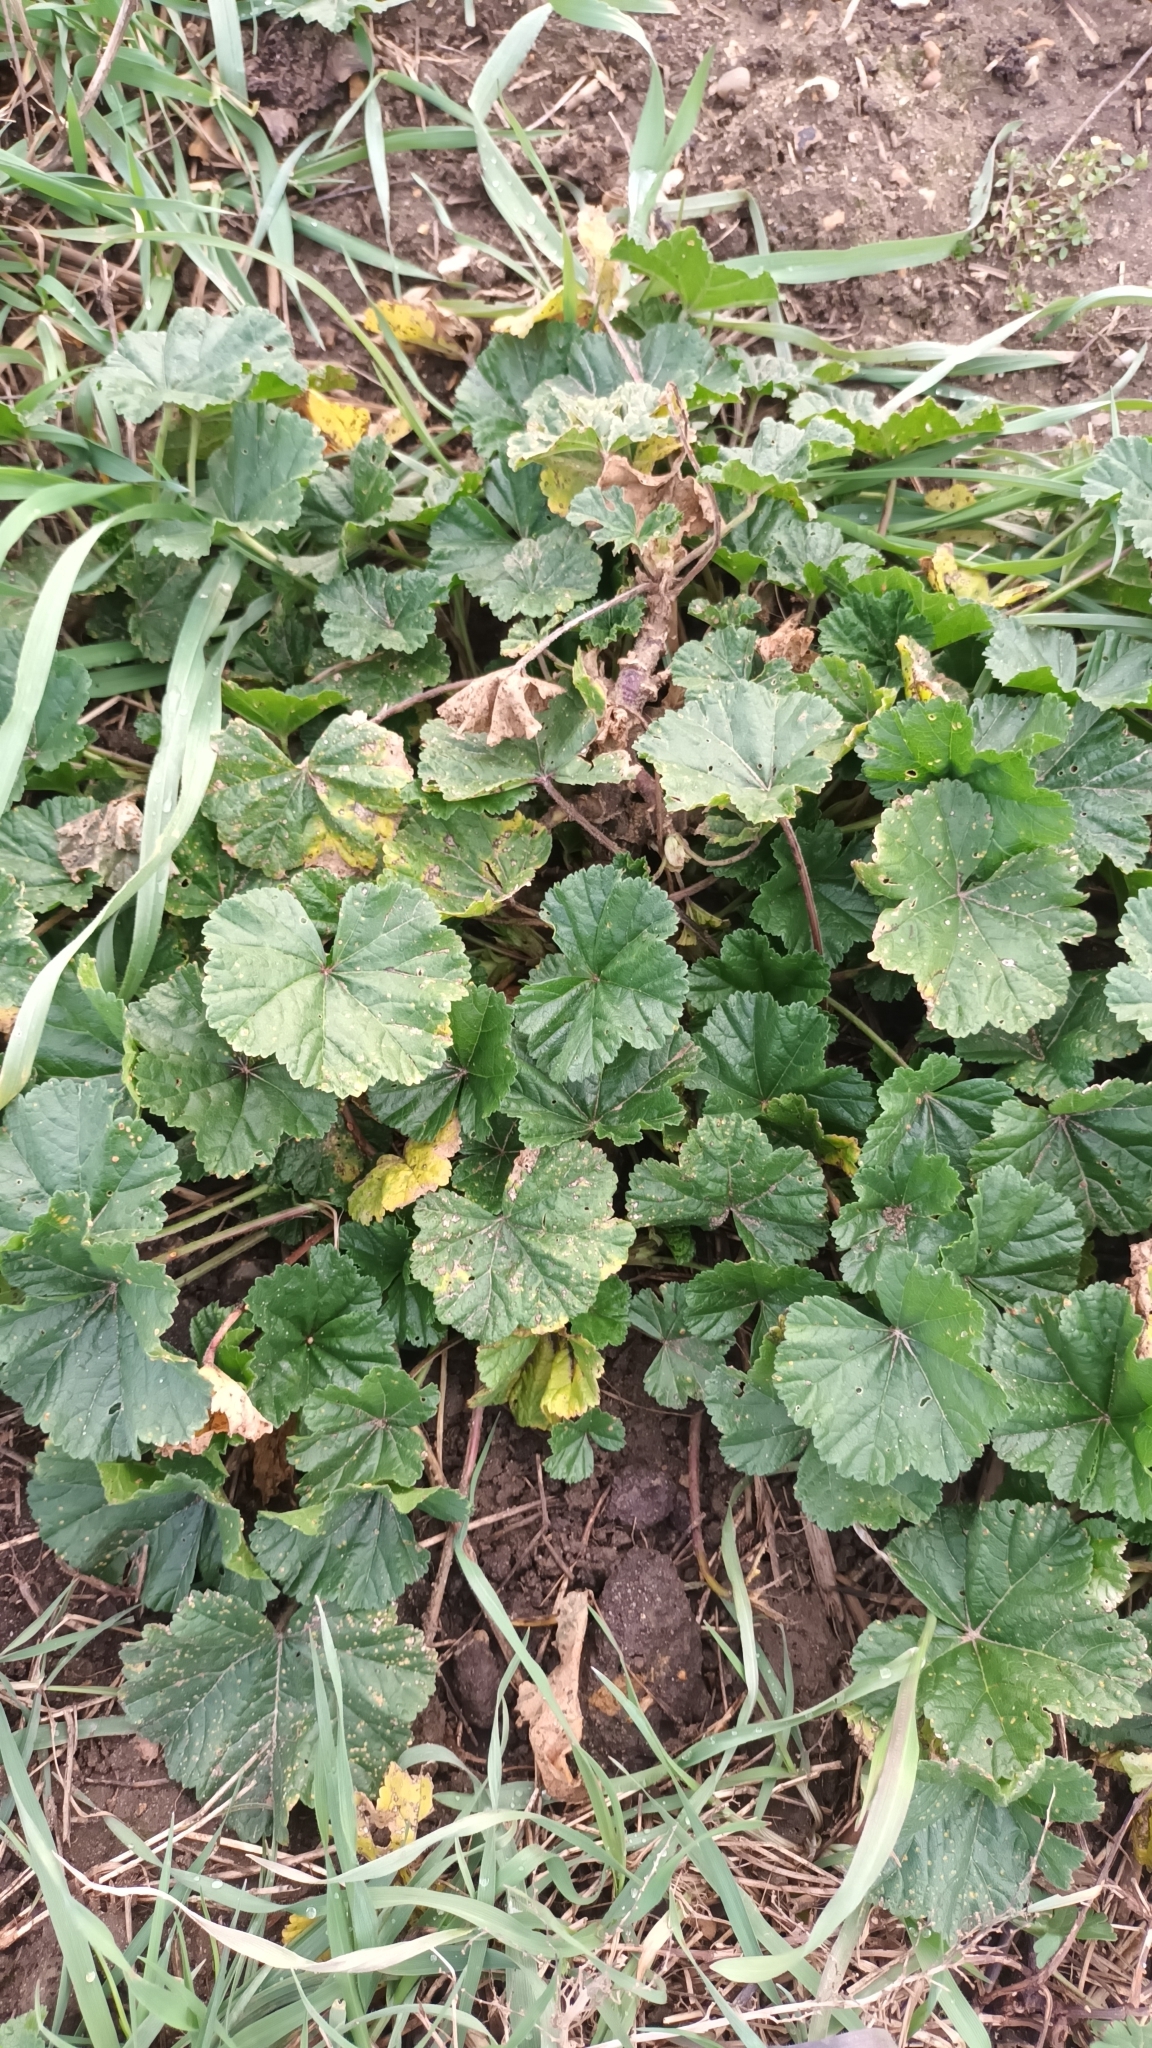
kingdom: Plantae
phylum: Tracheophyta
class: Magnoliopsida
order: Malvales
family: Malvaceae
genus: Malva
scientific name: Malva sylvestris
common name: Common mallow
